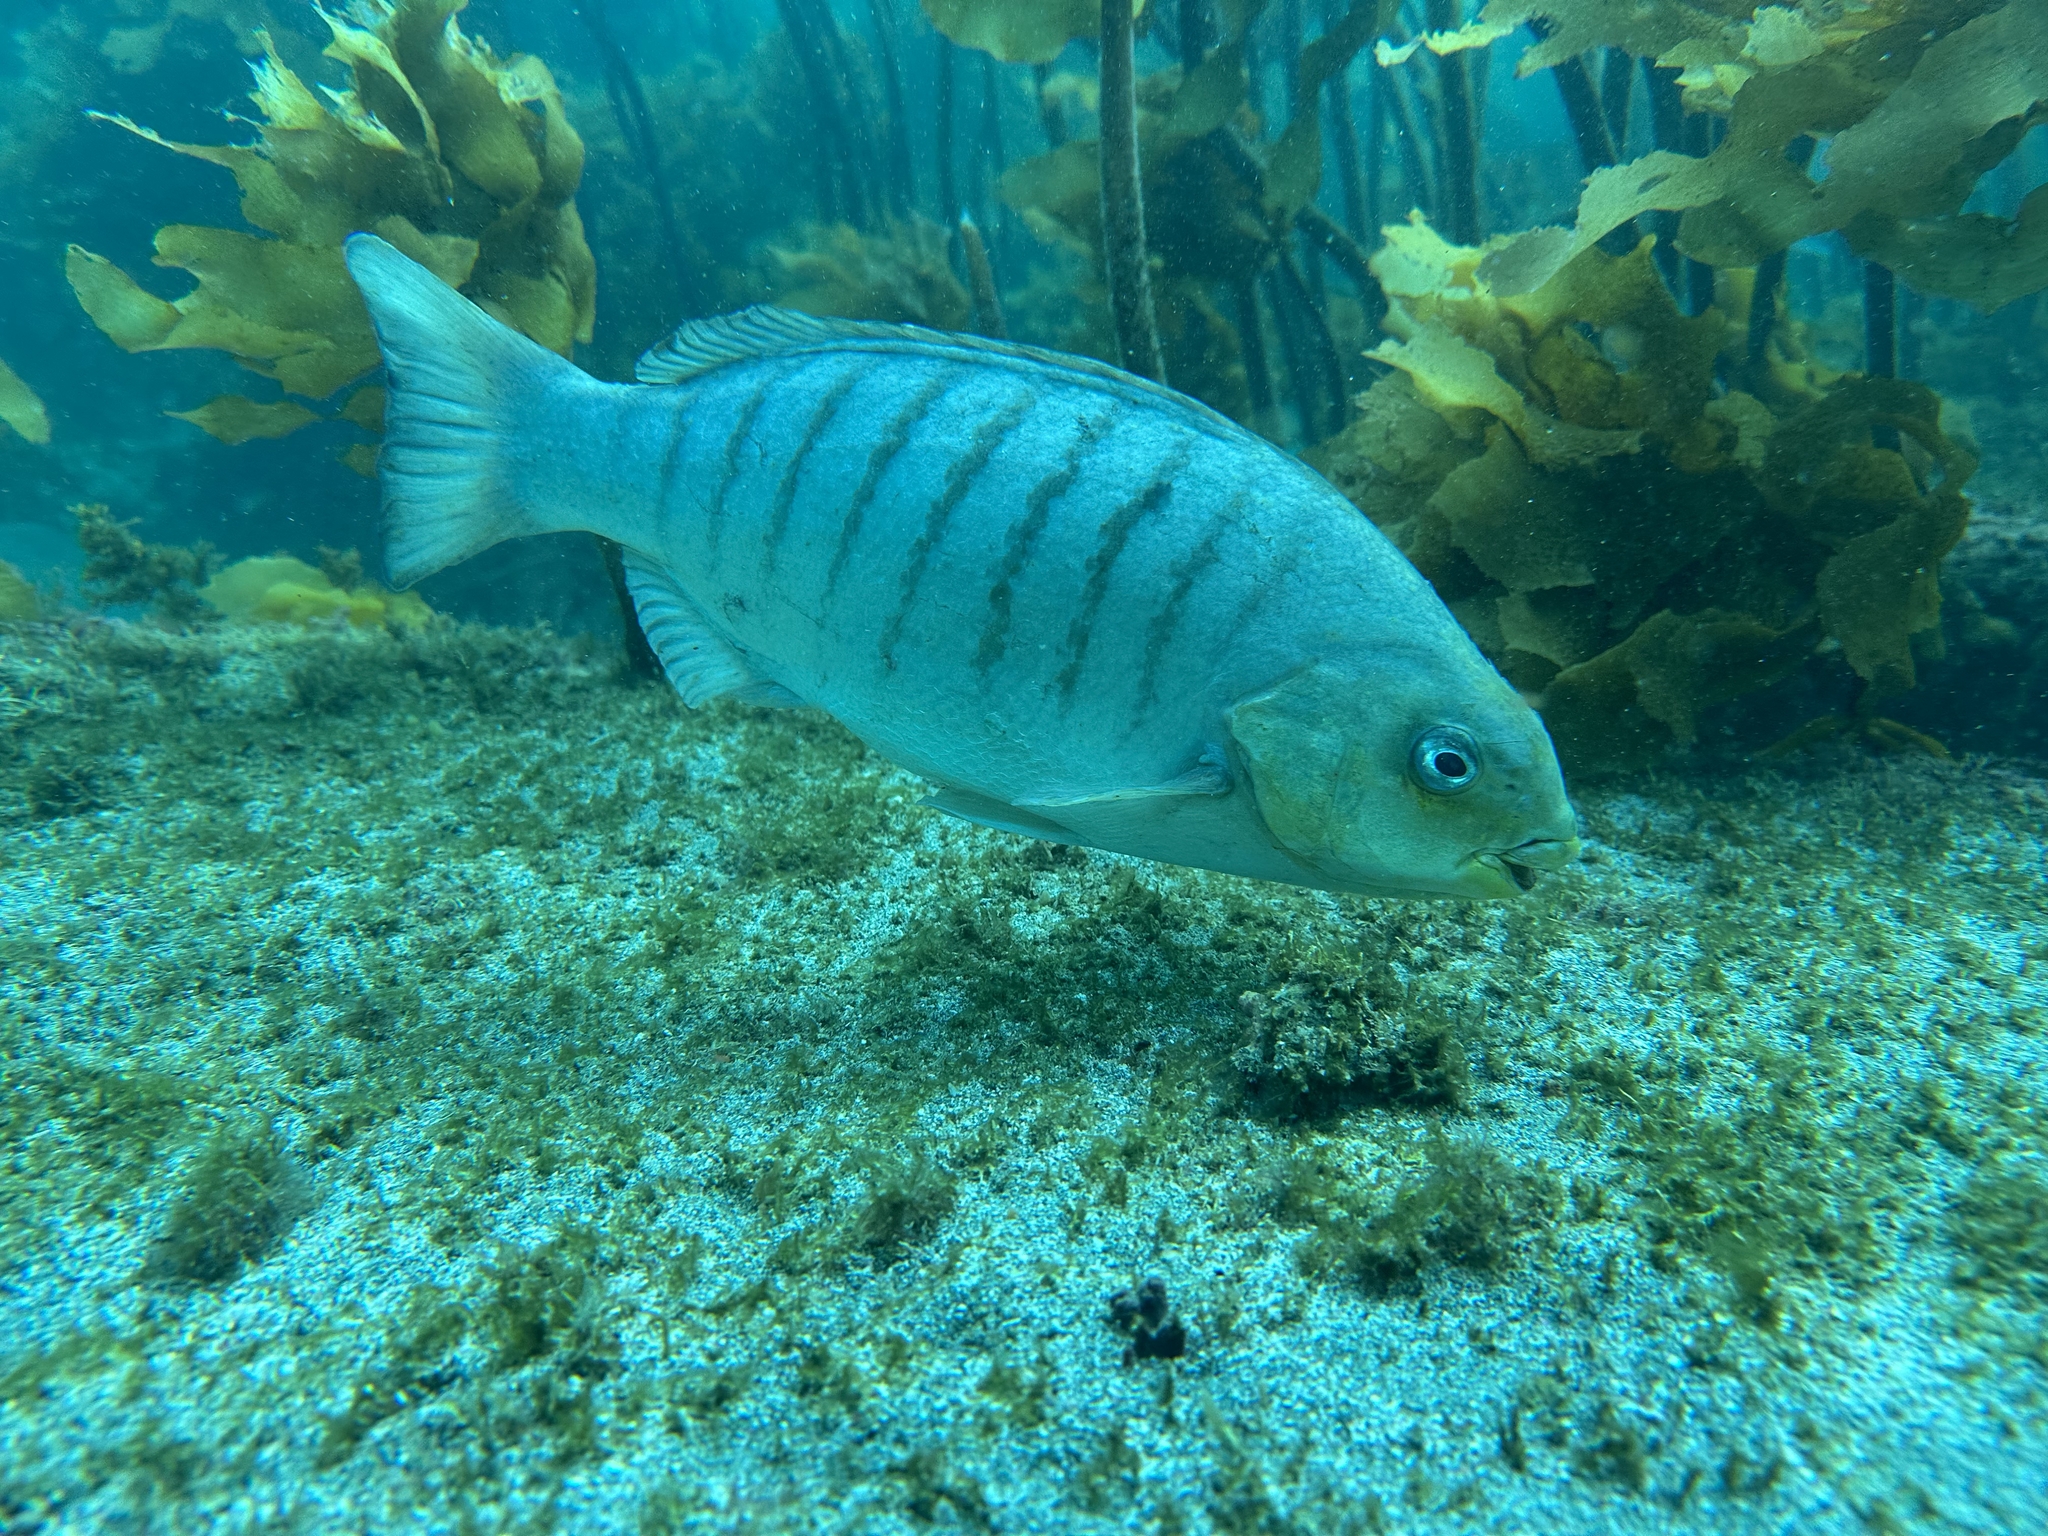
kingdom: Animalia
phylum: Chordata
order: Perciformes
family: Kyphosidae
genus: Girella
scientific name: Girella tricuspidata
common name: Parore
